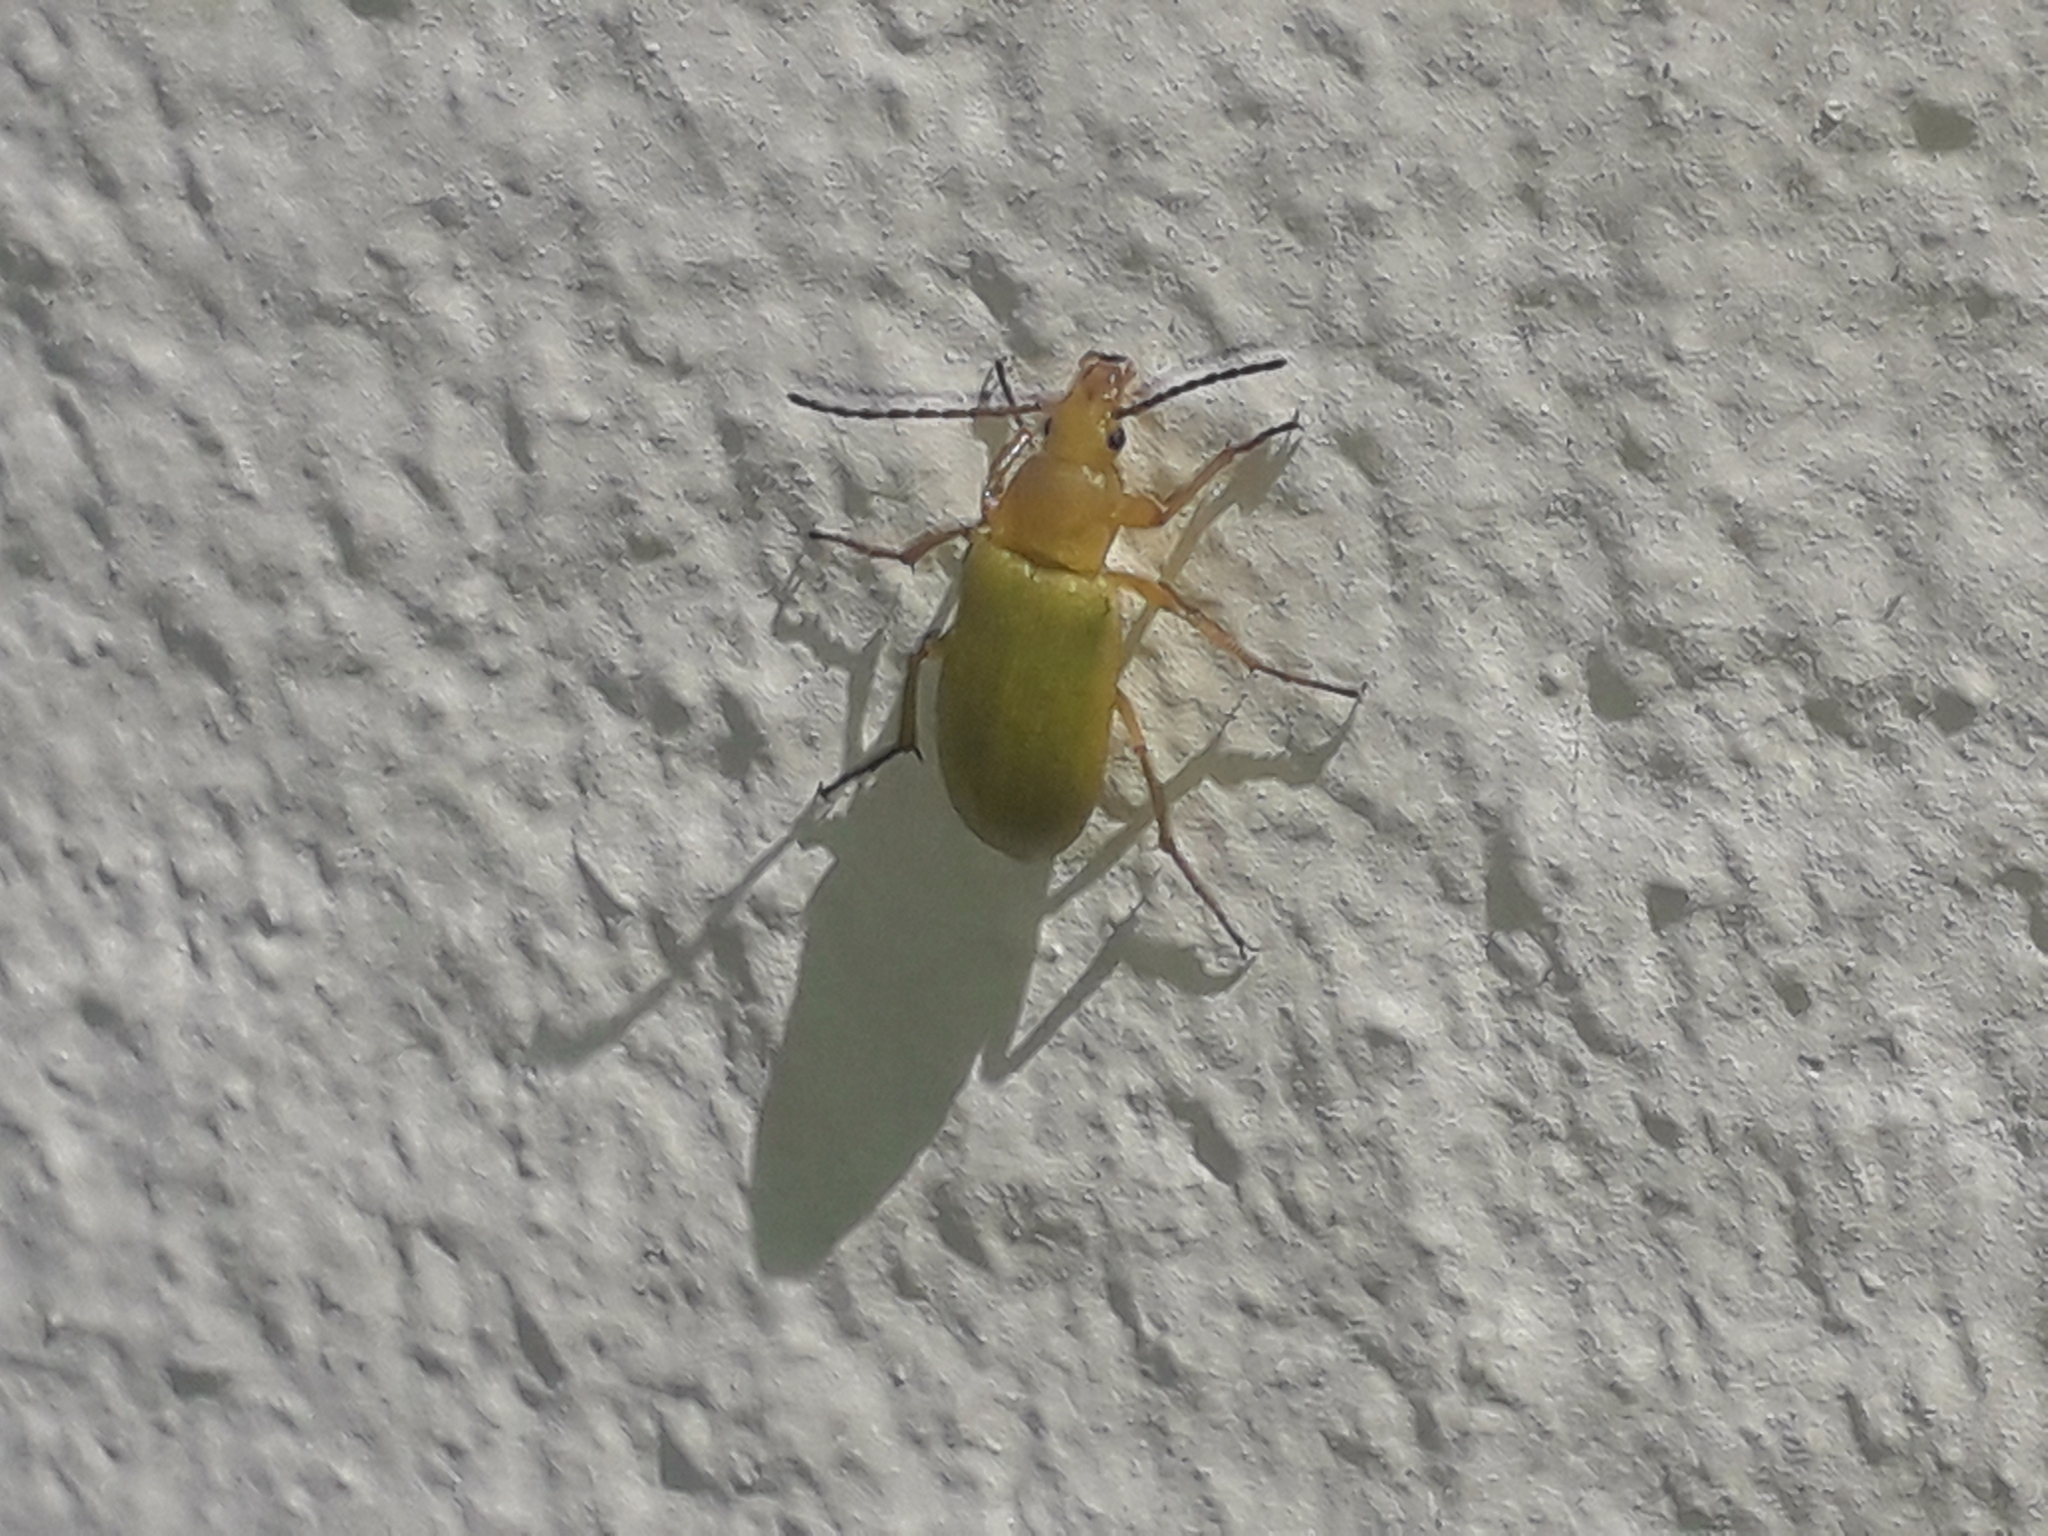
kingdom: Animalia
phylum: Arthropoda
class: Insecta
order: Coleoptera
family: Tenebrionidae
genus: Cteniopus
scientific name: Cteniopus sulphureus
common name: Sulphur beetle
